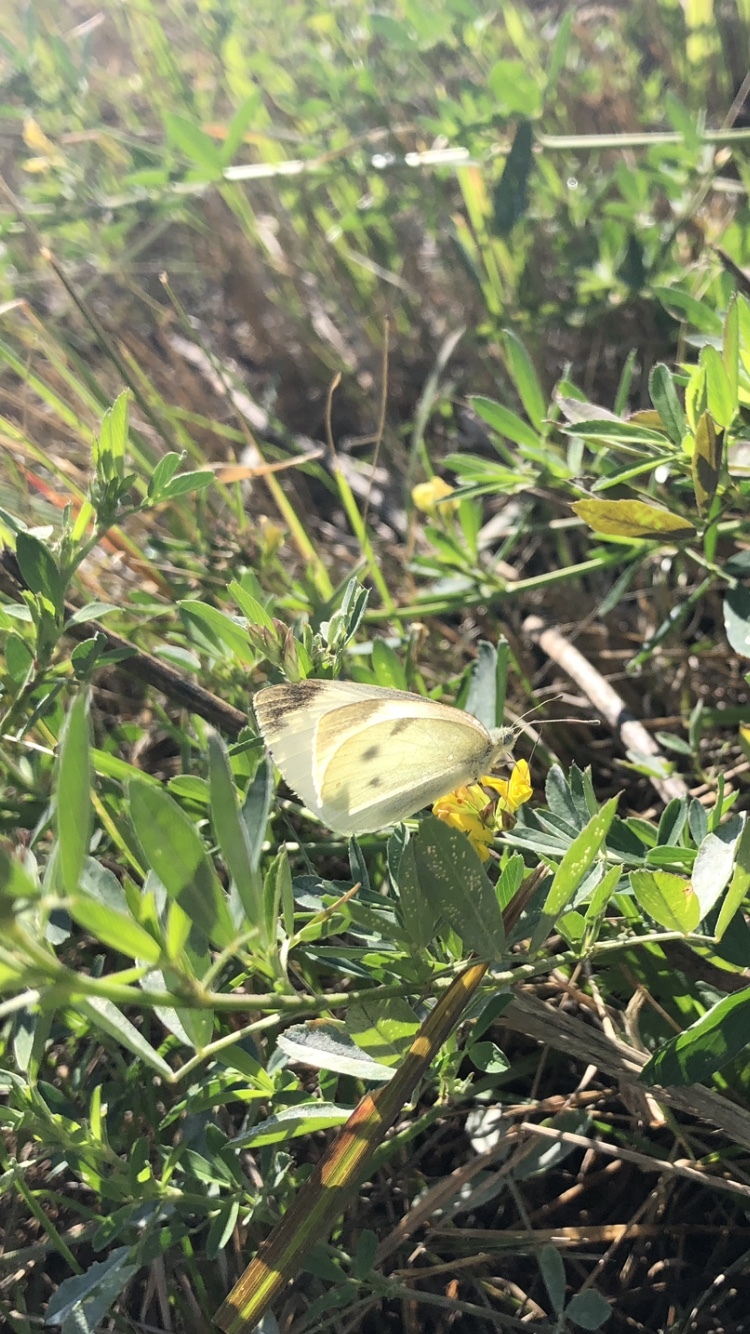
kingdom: Animalia
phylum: Arthropoda
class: Insecta
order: Lepidoptera
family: Pieridae
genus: Pieris
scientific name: Pieris rapae
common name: Small white
